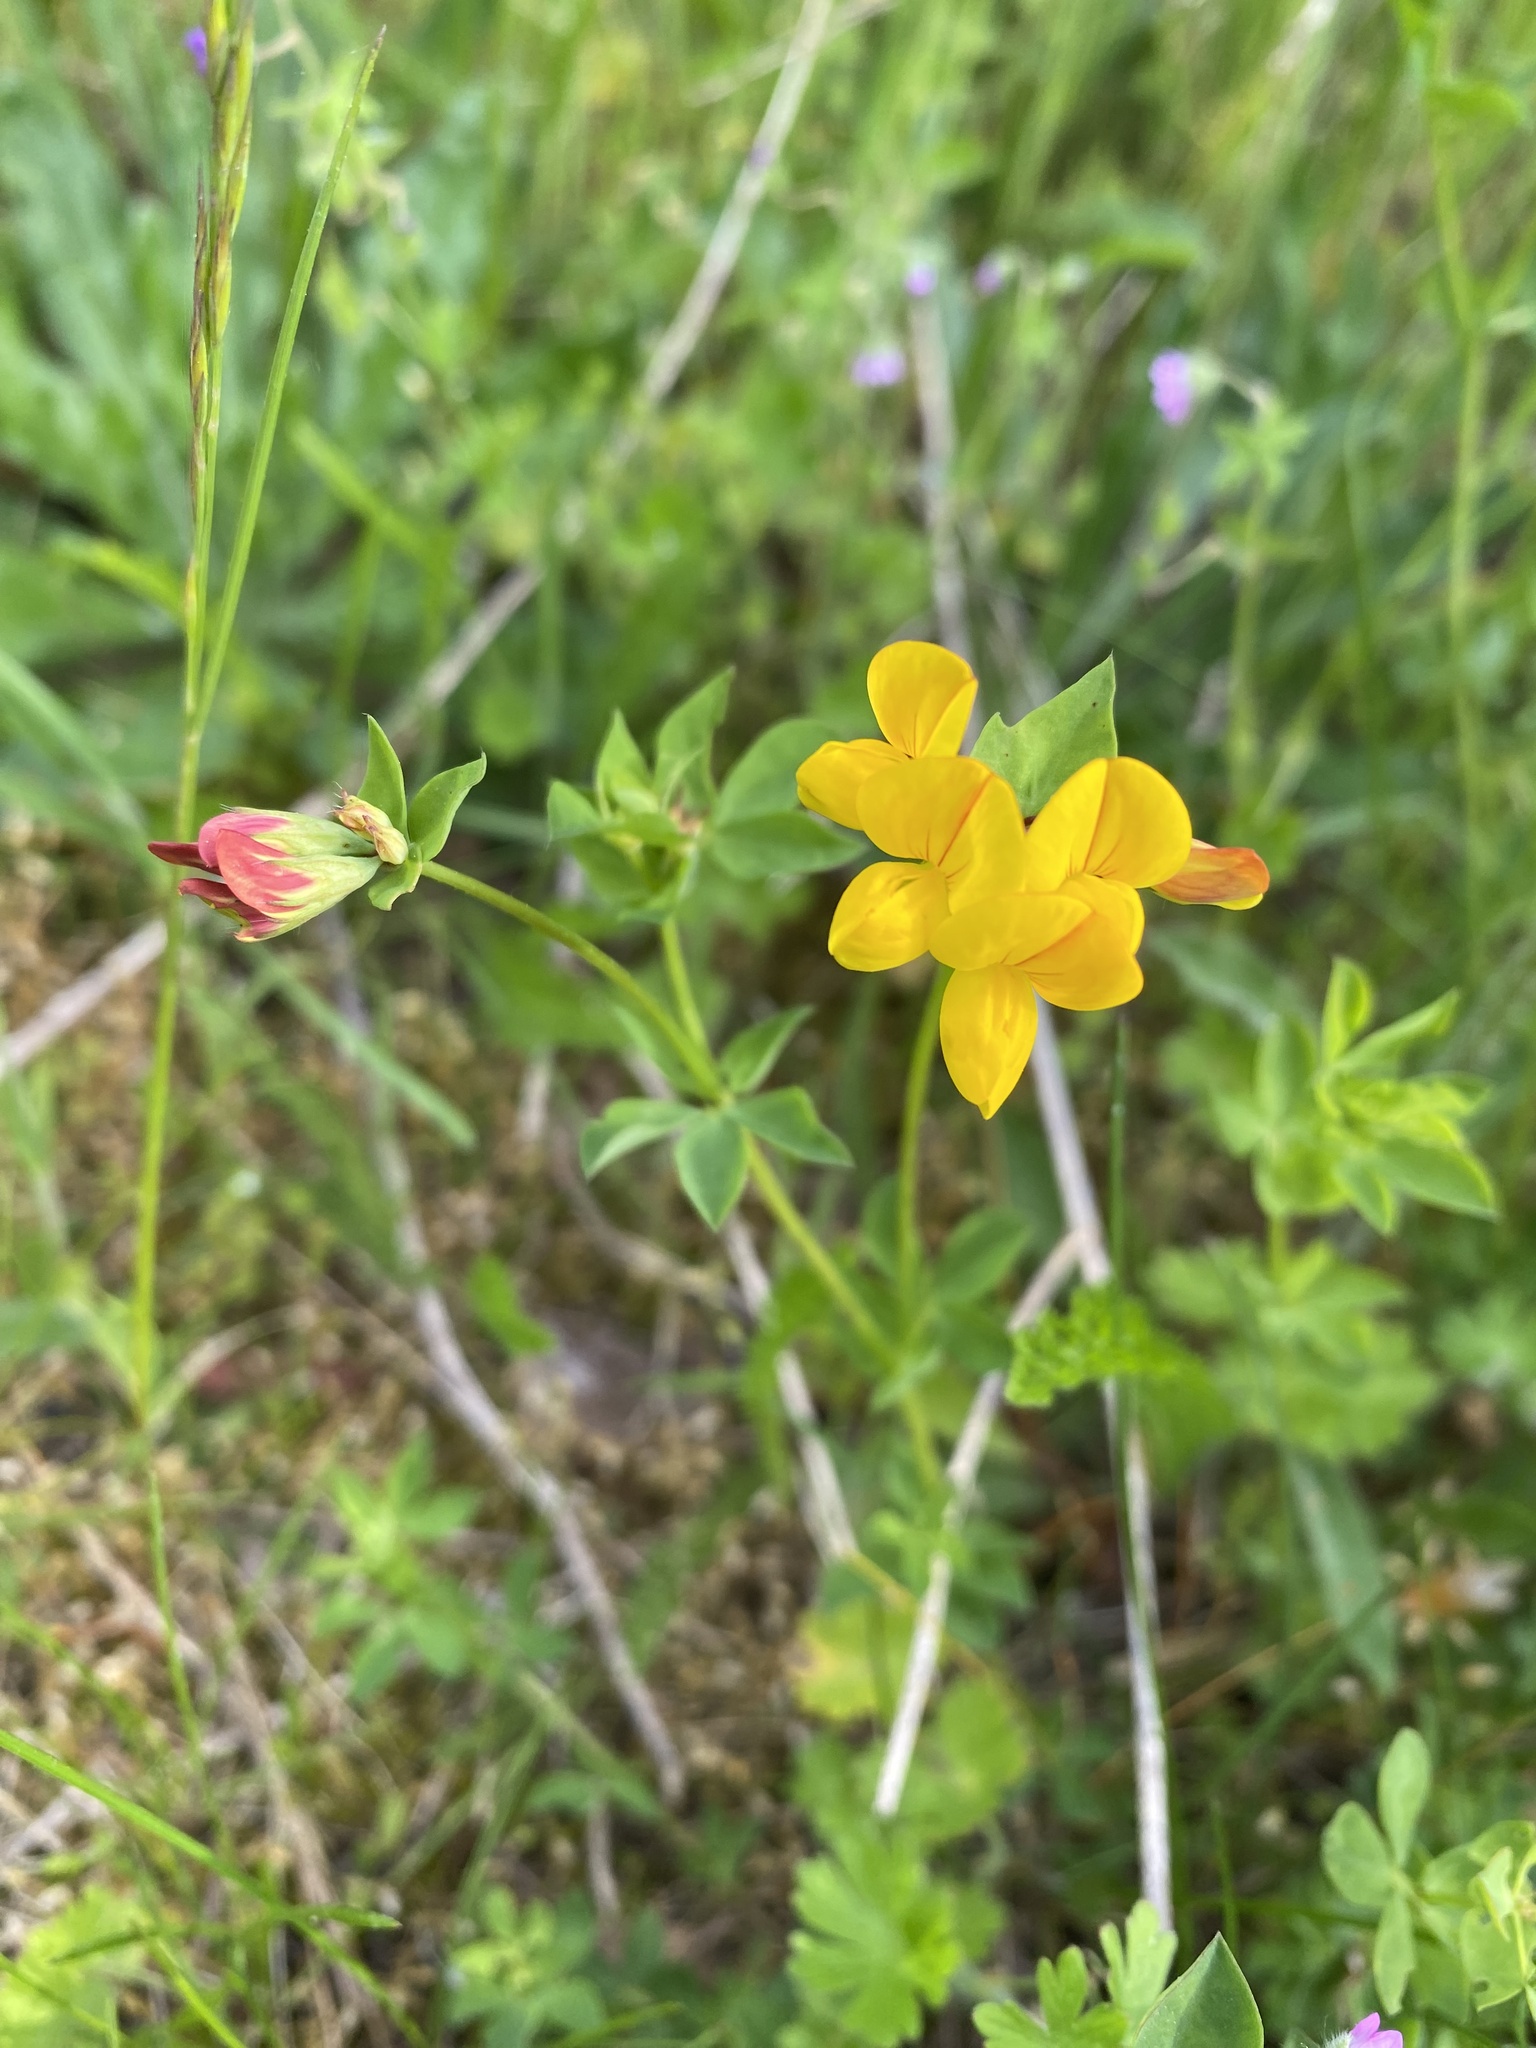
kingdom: Plantae
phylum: Tracheophyta
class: Magnoliopsida
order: Fabales
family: Fabaceae
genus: Lotus
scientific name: Lotus corniculatus
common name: Common bird's-foot-trefoil
